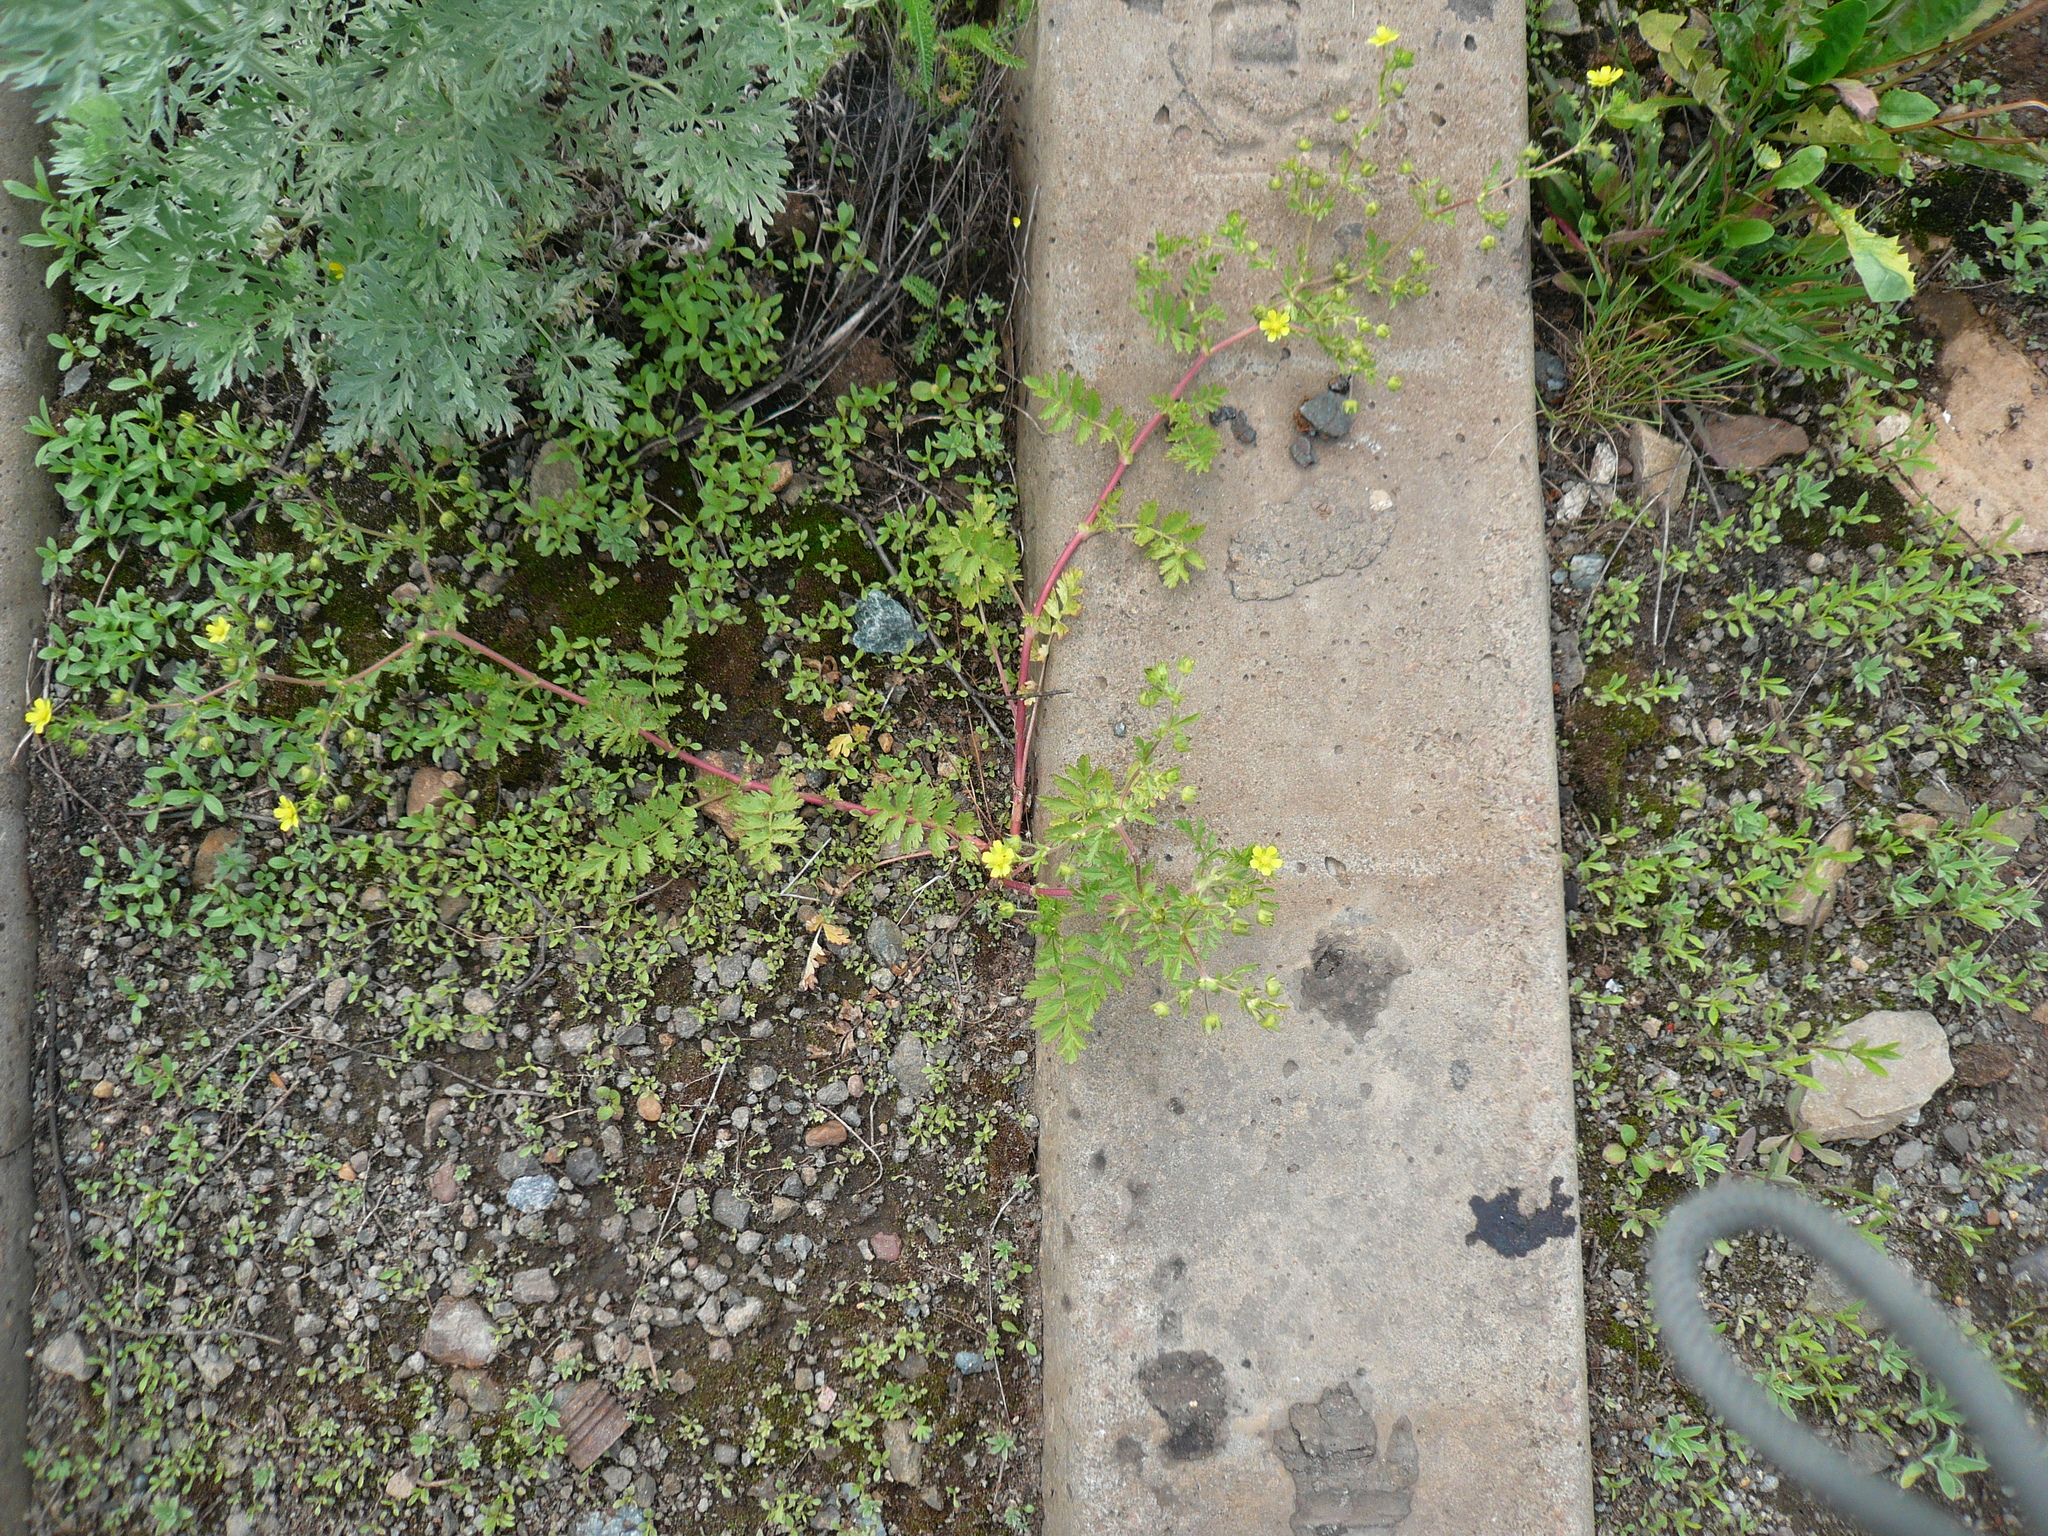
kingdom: Plantae
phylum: Tracheophyta
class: Magnoliopsida
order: Rosales
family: Rosaceae
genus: Potentilla
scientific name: Potentilla supina
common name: Prostrate cinquefoil
